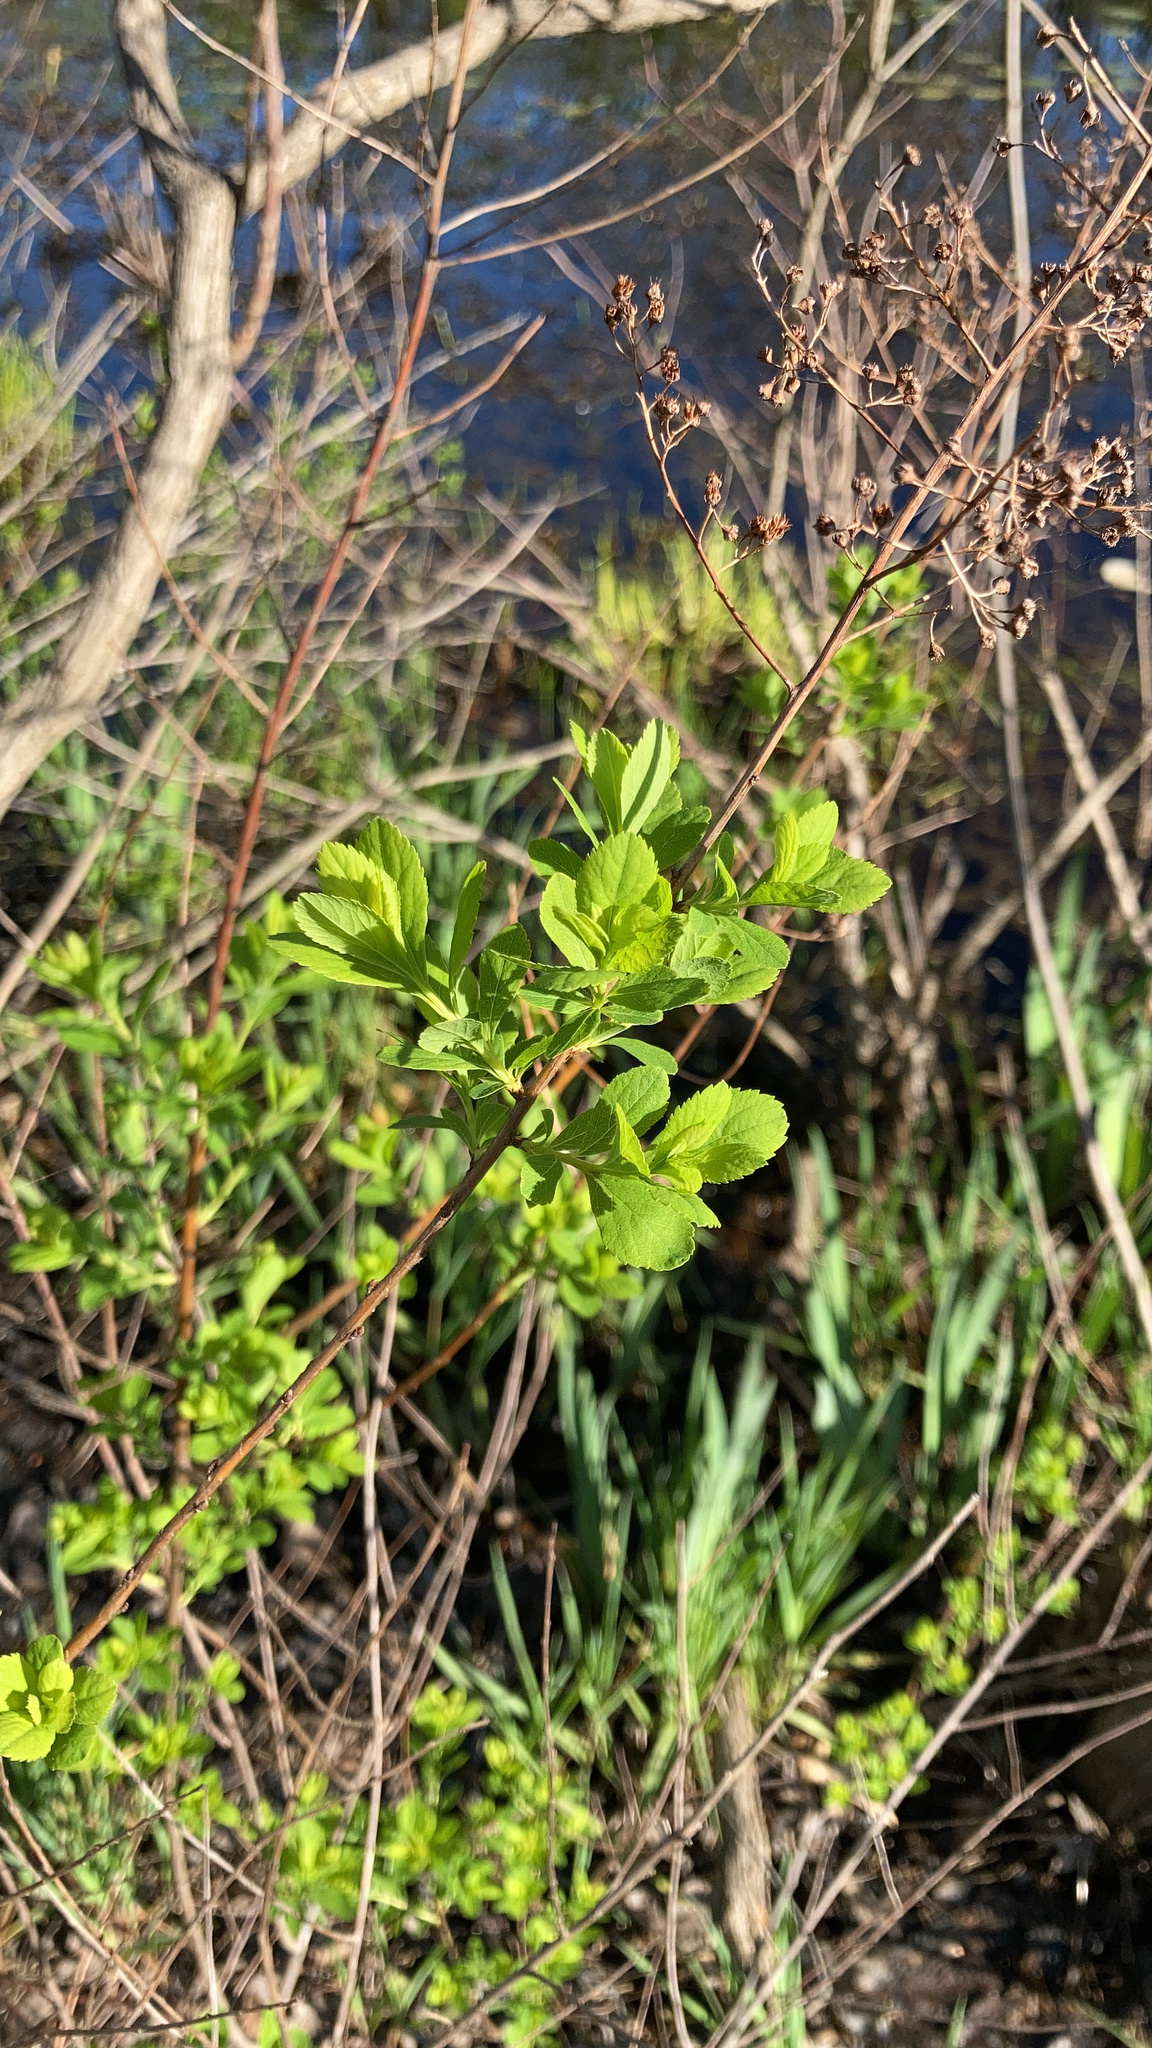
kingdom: Plantae
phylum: Tracheophyta
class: Magnoliopsida
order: Rosales
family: Rosaceae
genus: Spiraea
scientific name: Spiraea alba
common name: Pale bridewort
